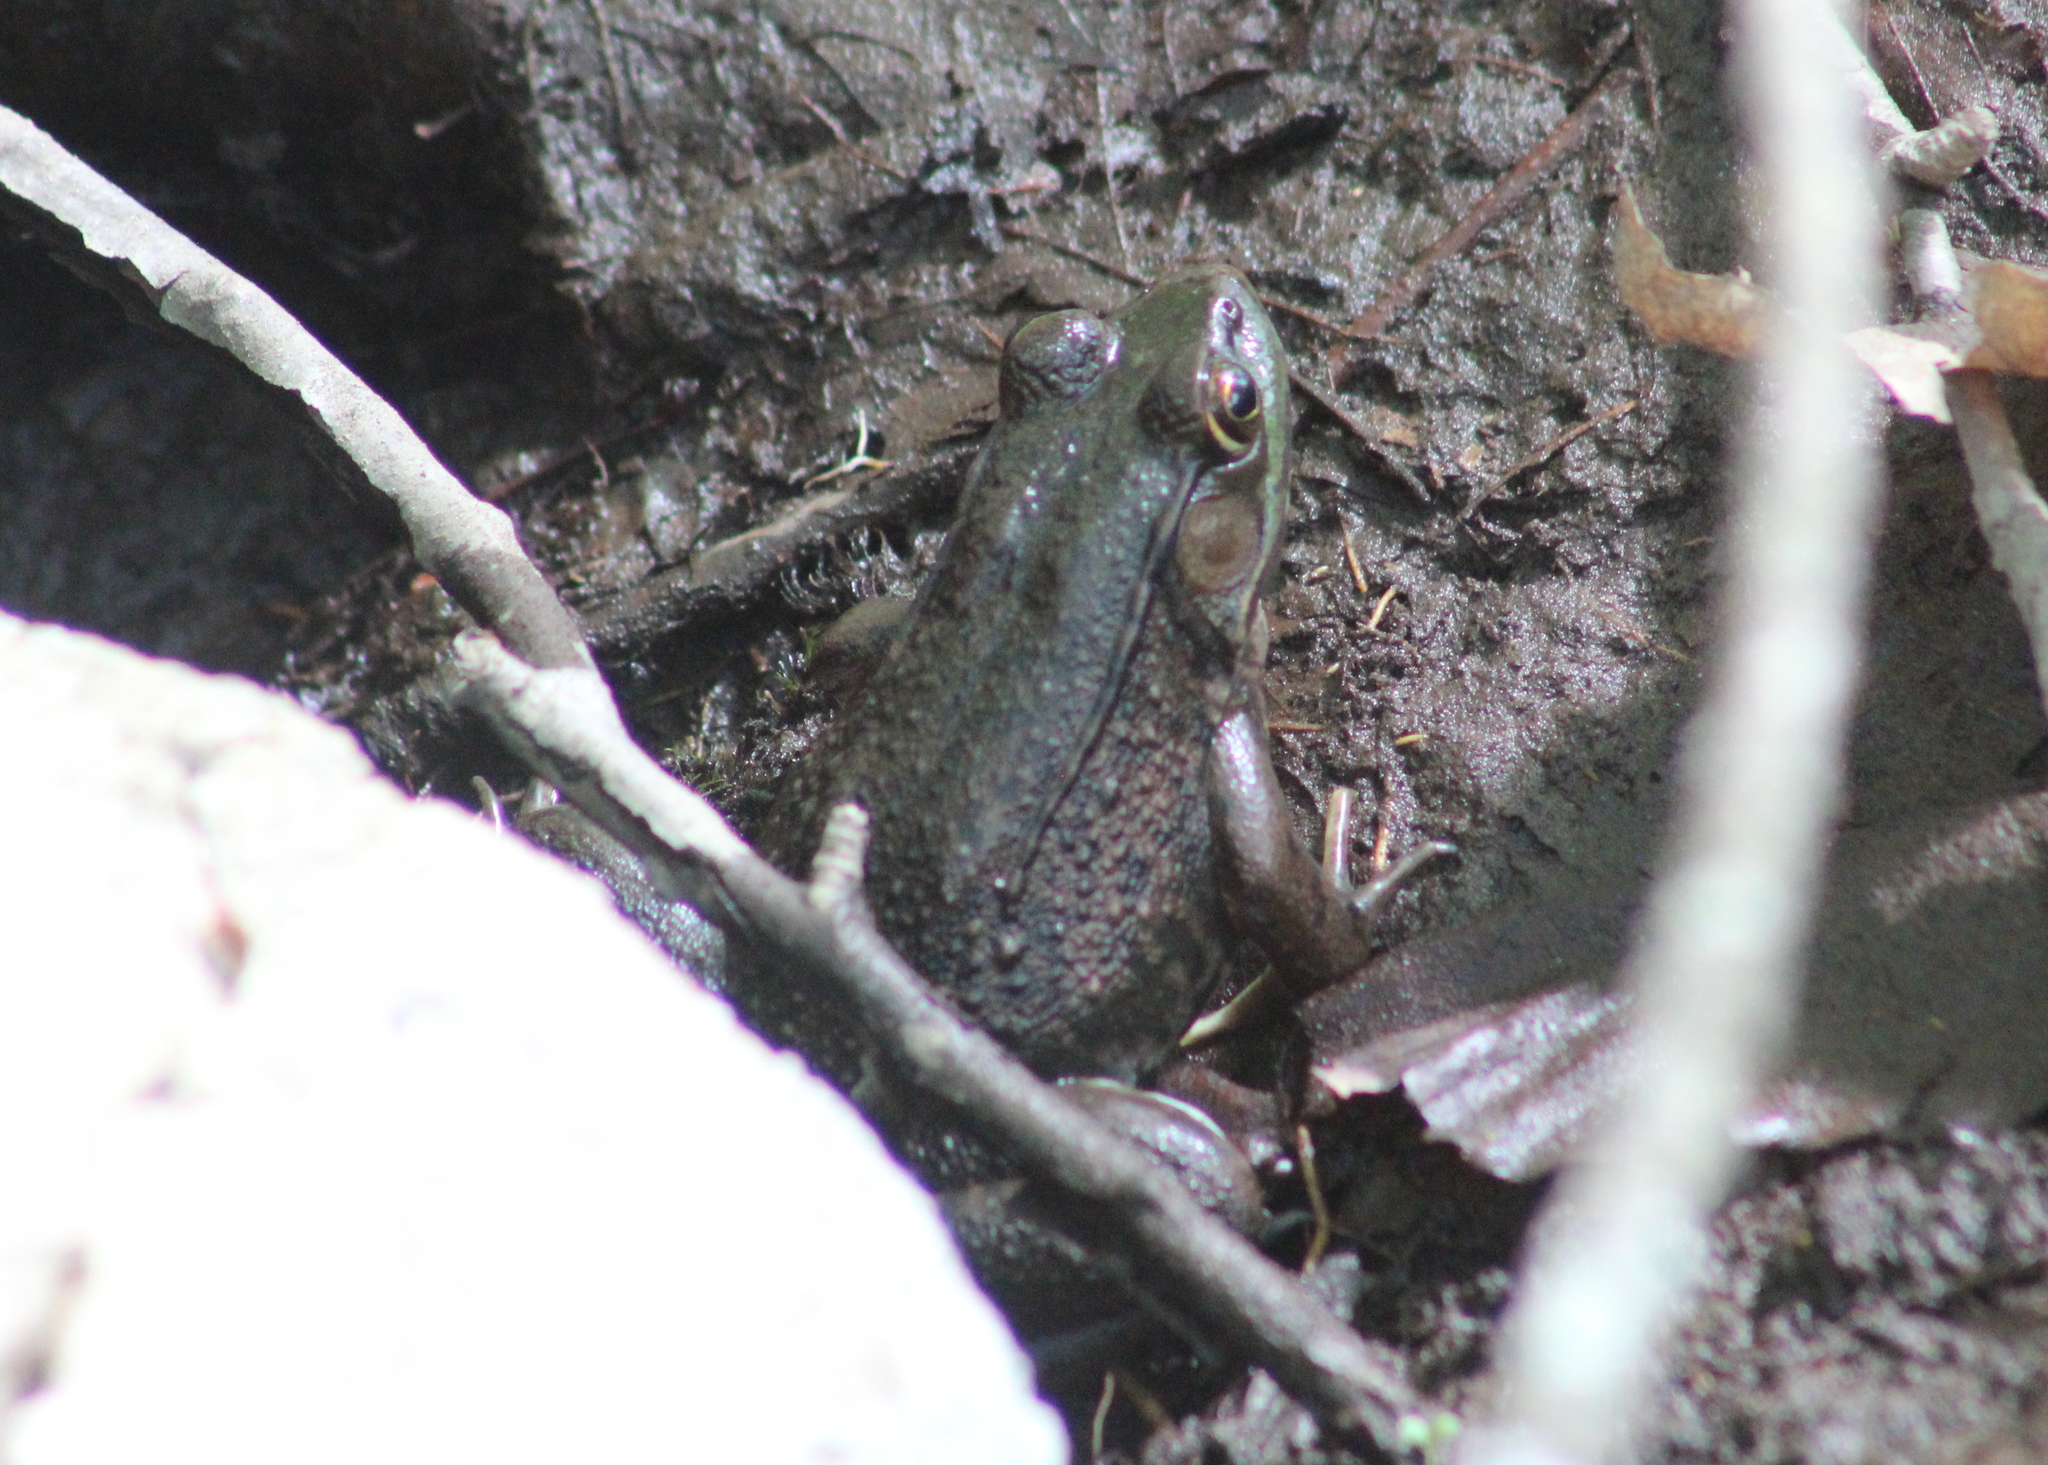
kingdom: Animalia
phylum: Chordata
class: Amphibia
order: Anura
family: Ranidae
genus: Lithobates
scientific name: Lithobates clamitans
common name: Green frog
